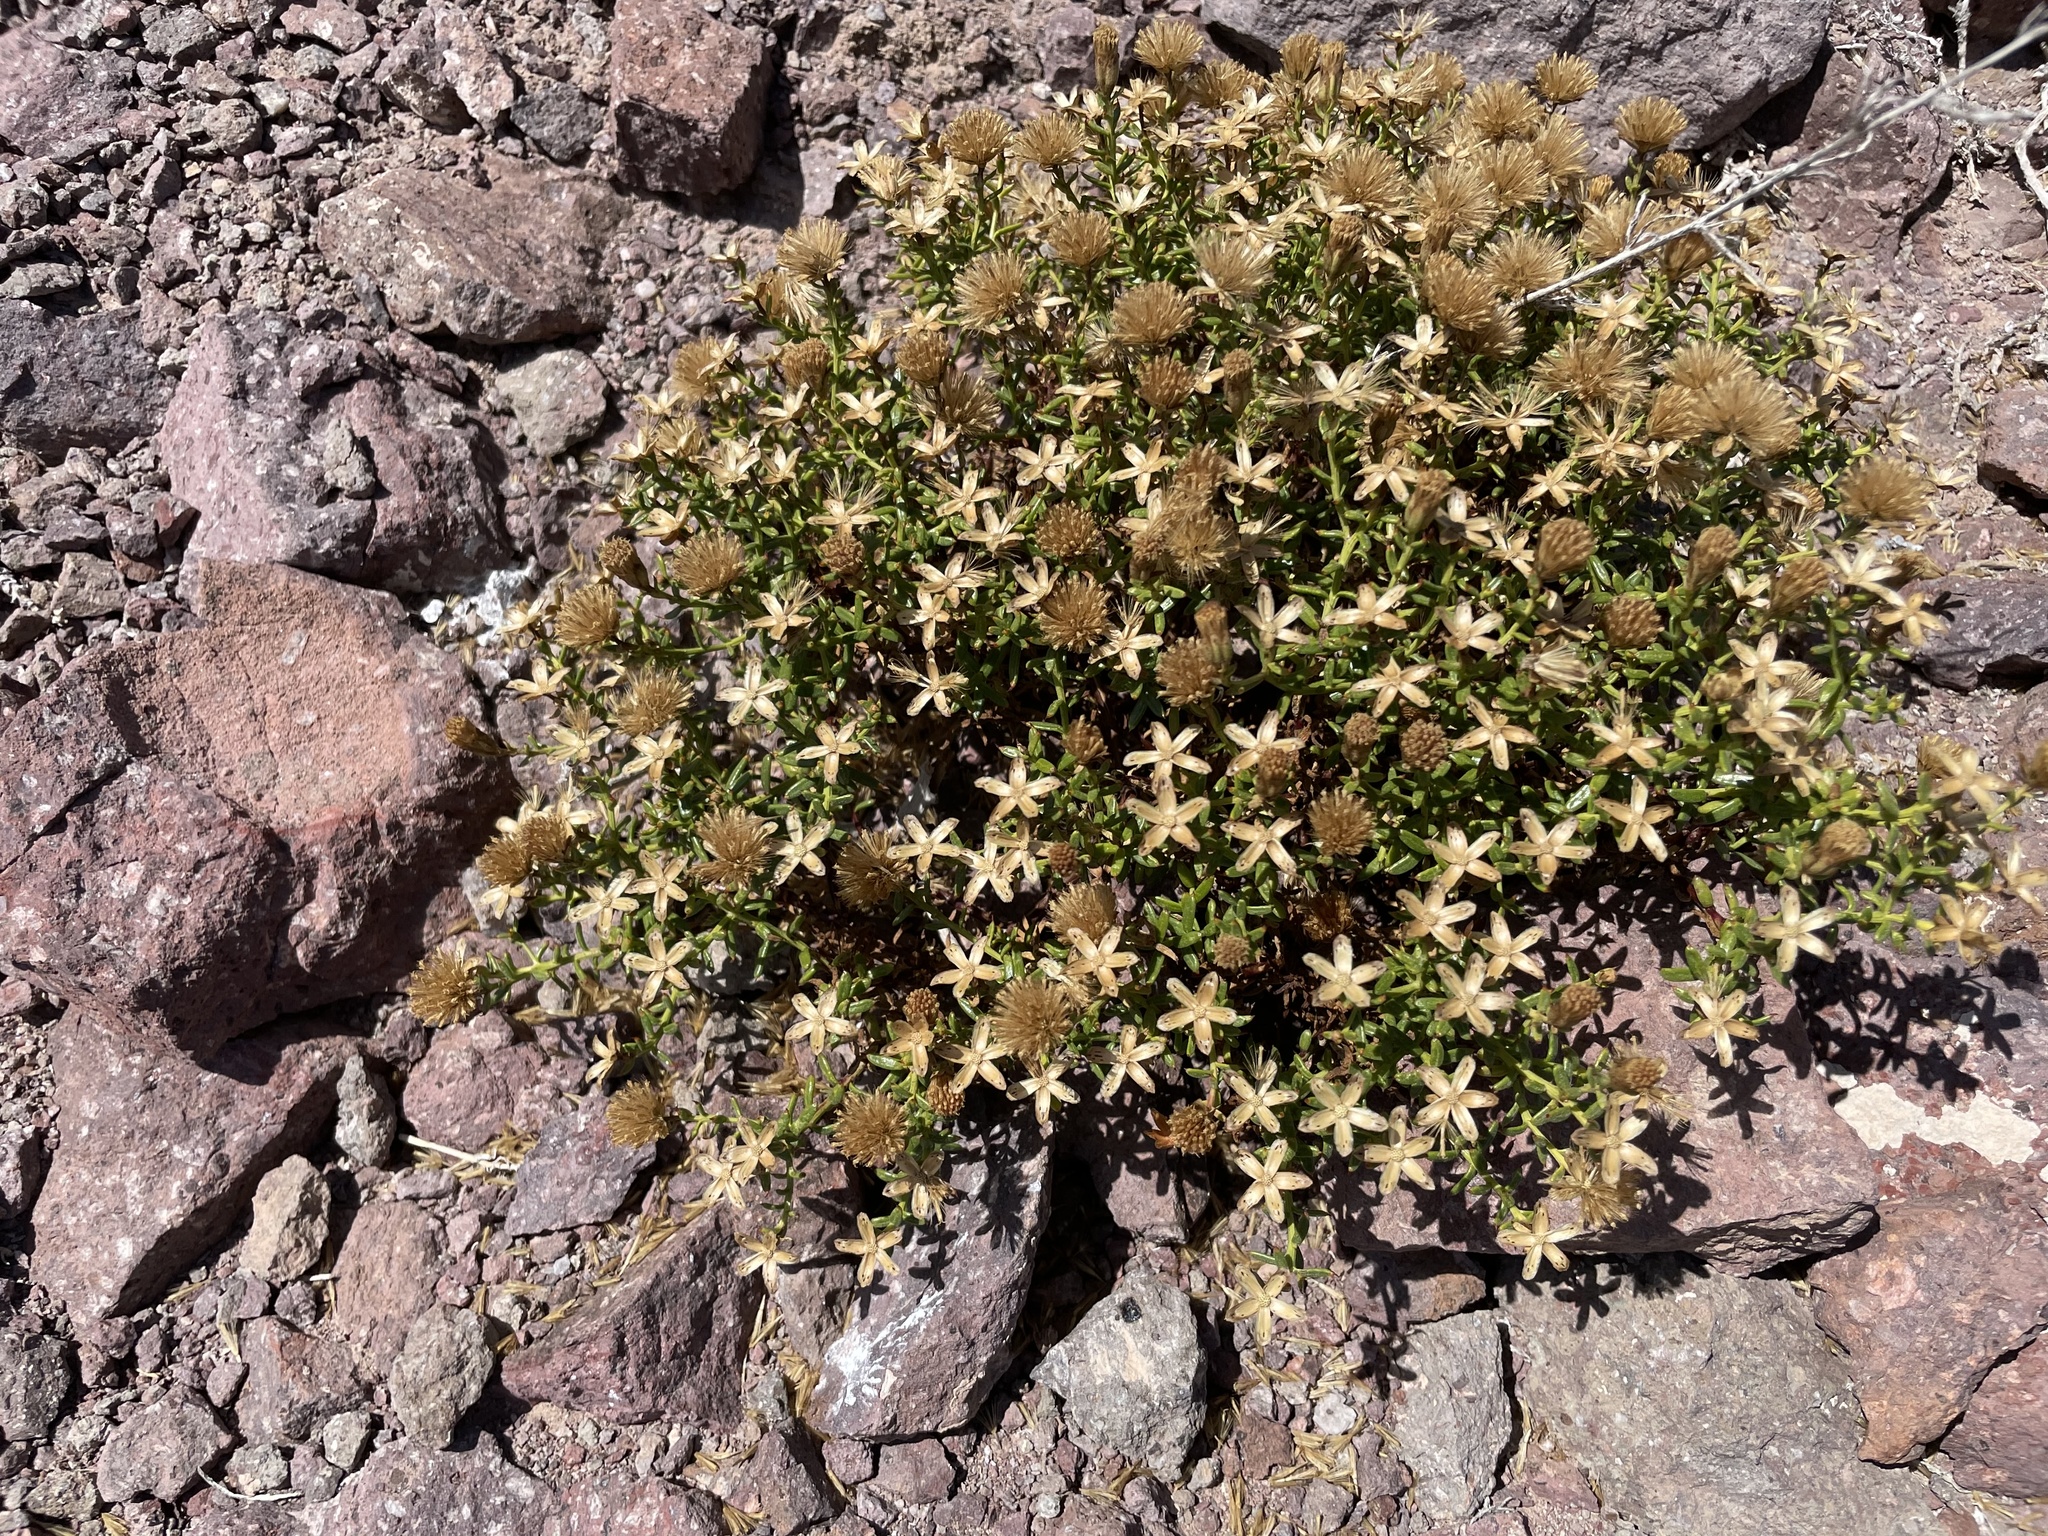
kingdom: Plantae
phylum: Tracheophyta
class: Magnoliopsida
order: Asterales
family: Asteraceae
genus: Bajacalia
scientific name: Bajacalia crassifolia
